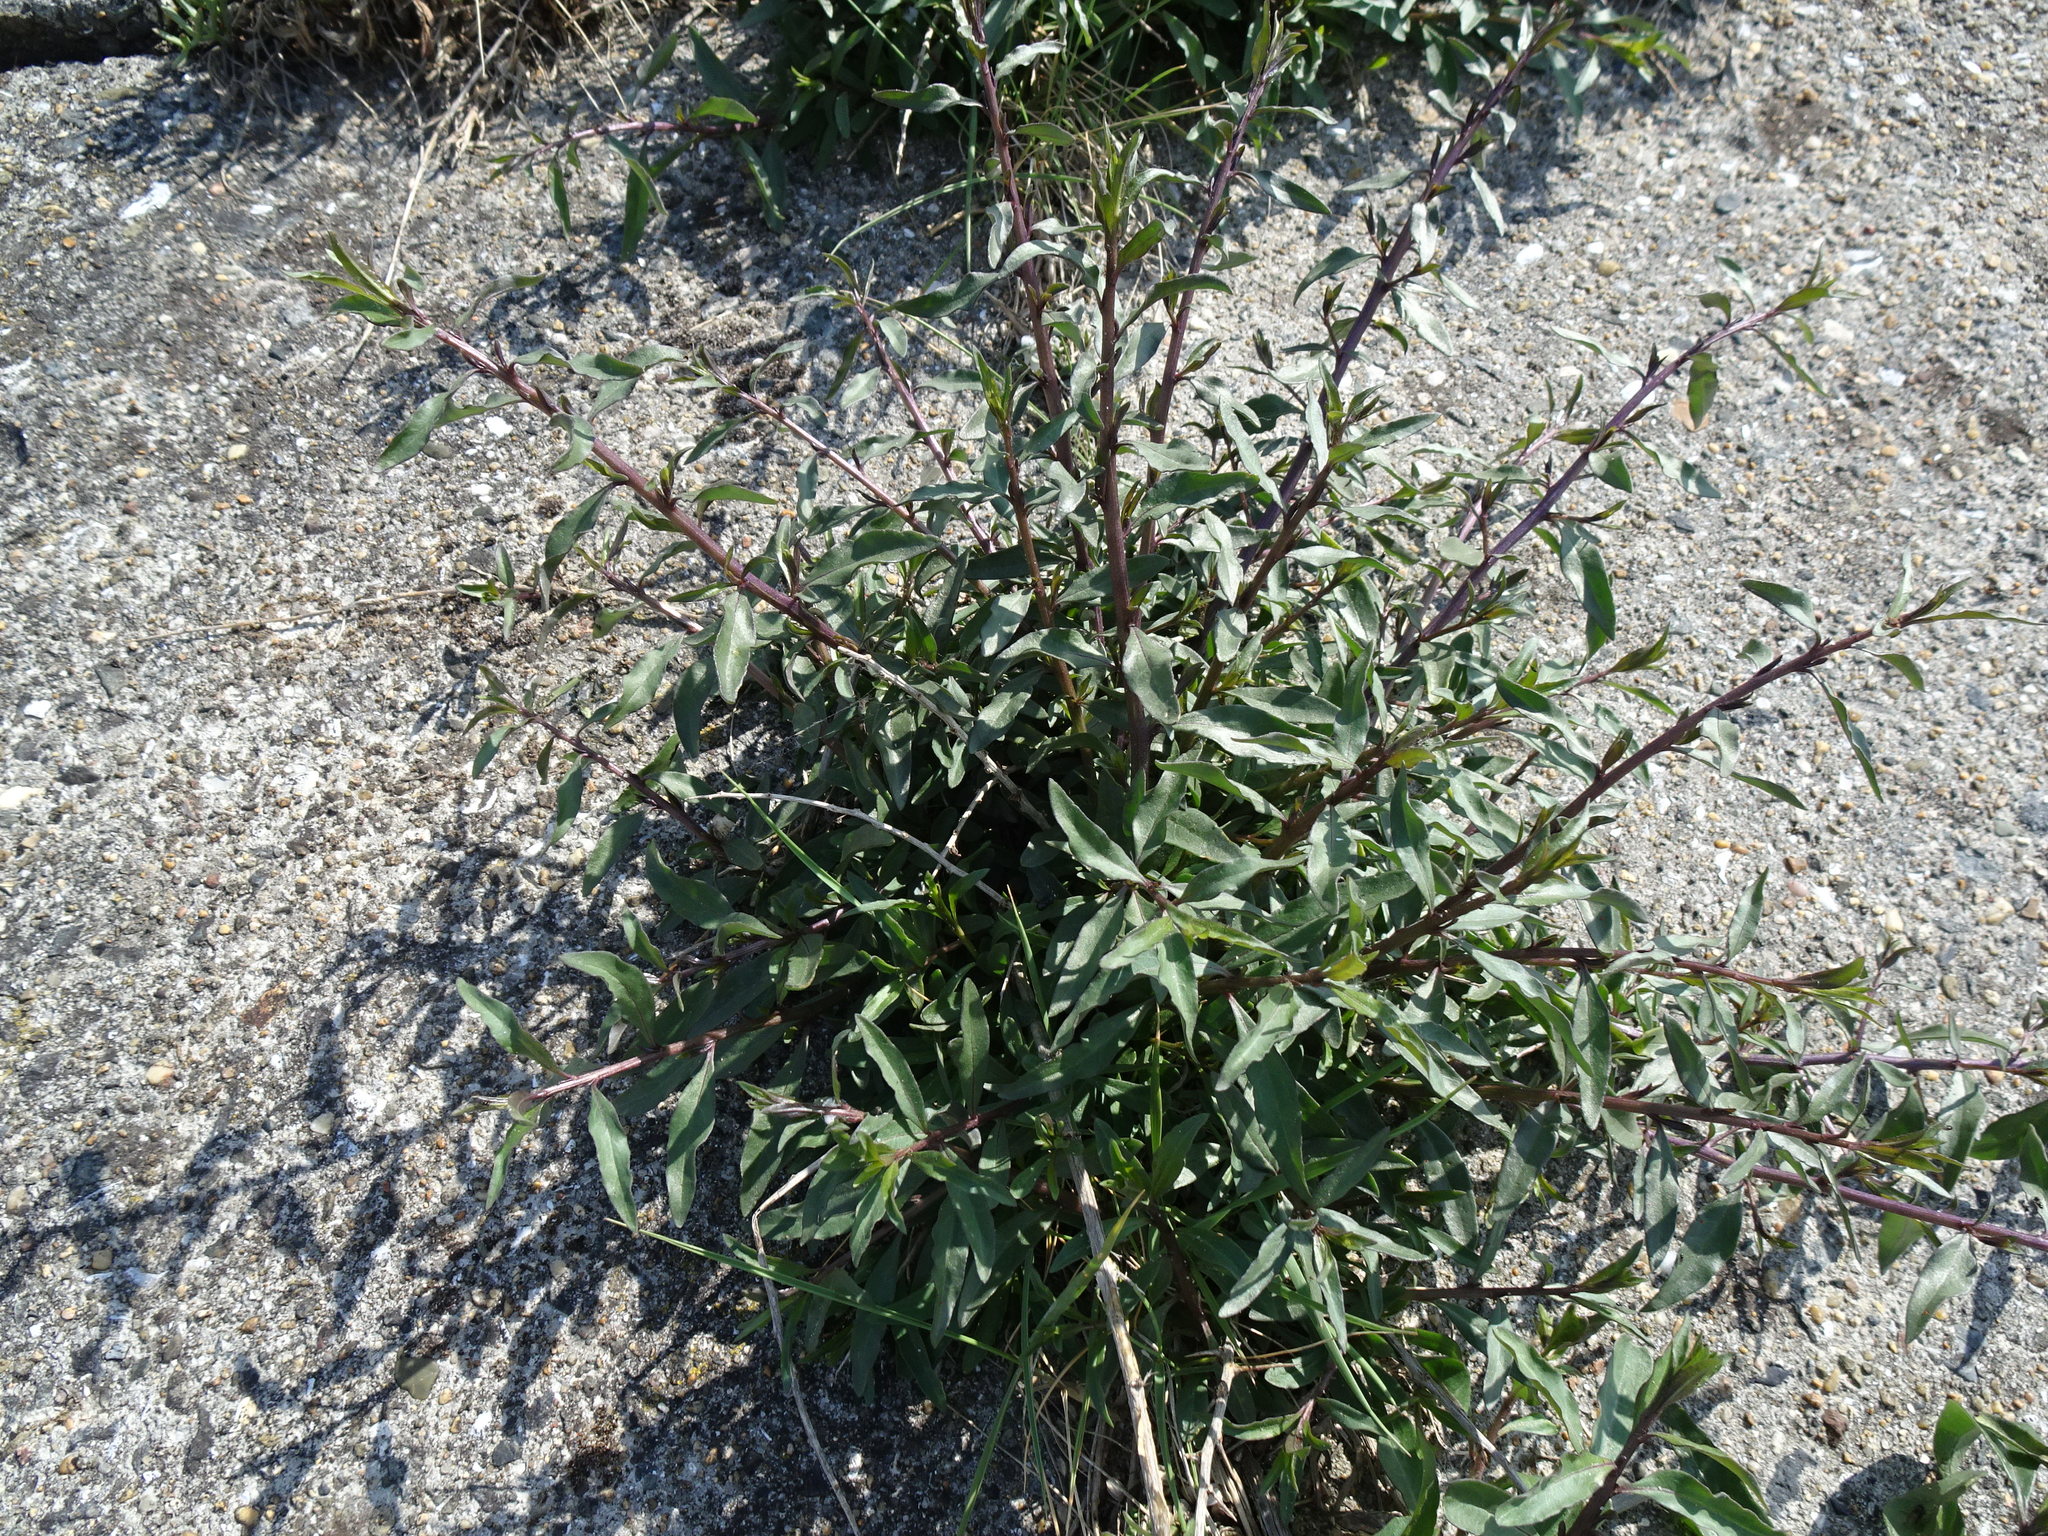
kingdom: Plantae
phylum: Tracheophyta
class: Magnoliopsida
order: Solanales
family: Solanaceae
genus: Lycium
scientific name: Lycium barbarum
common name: Duke of argyll's teaplant
